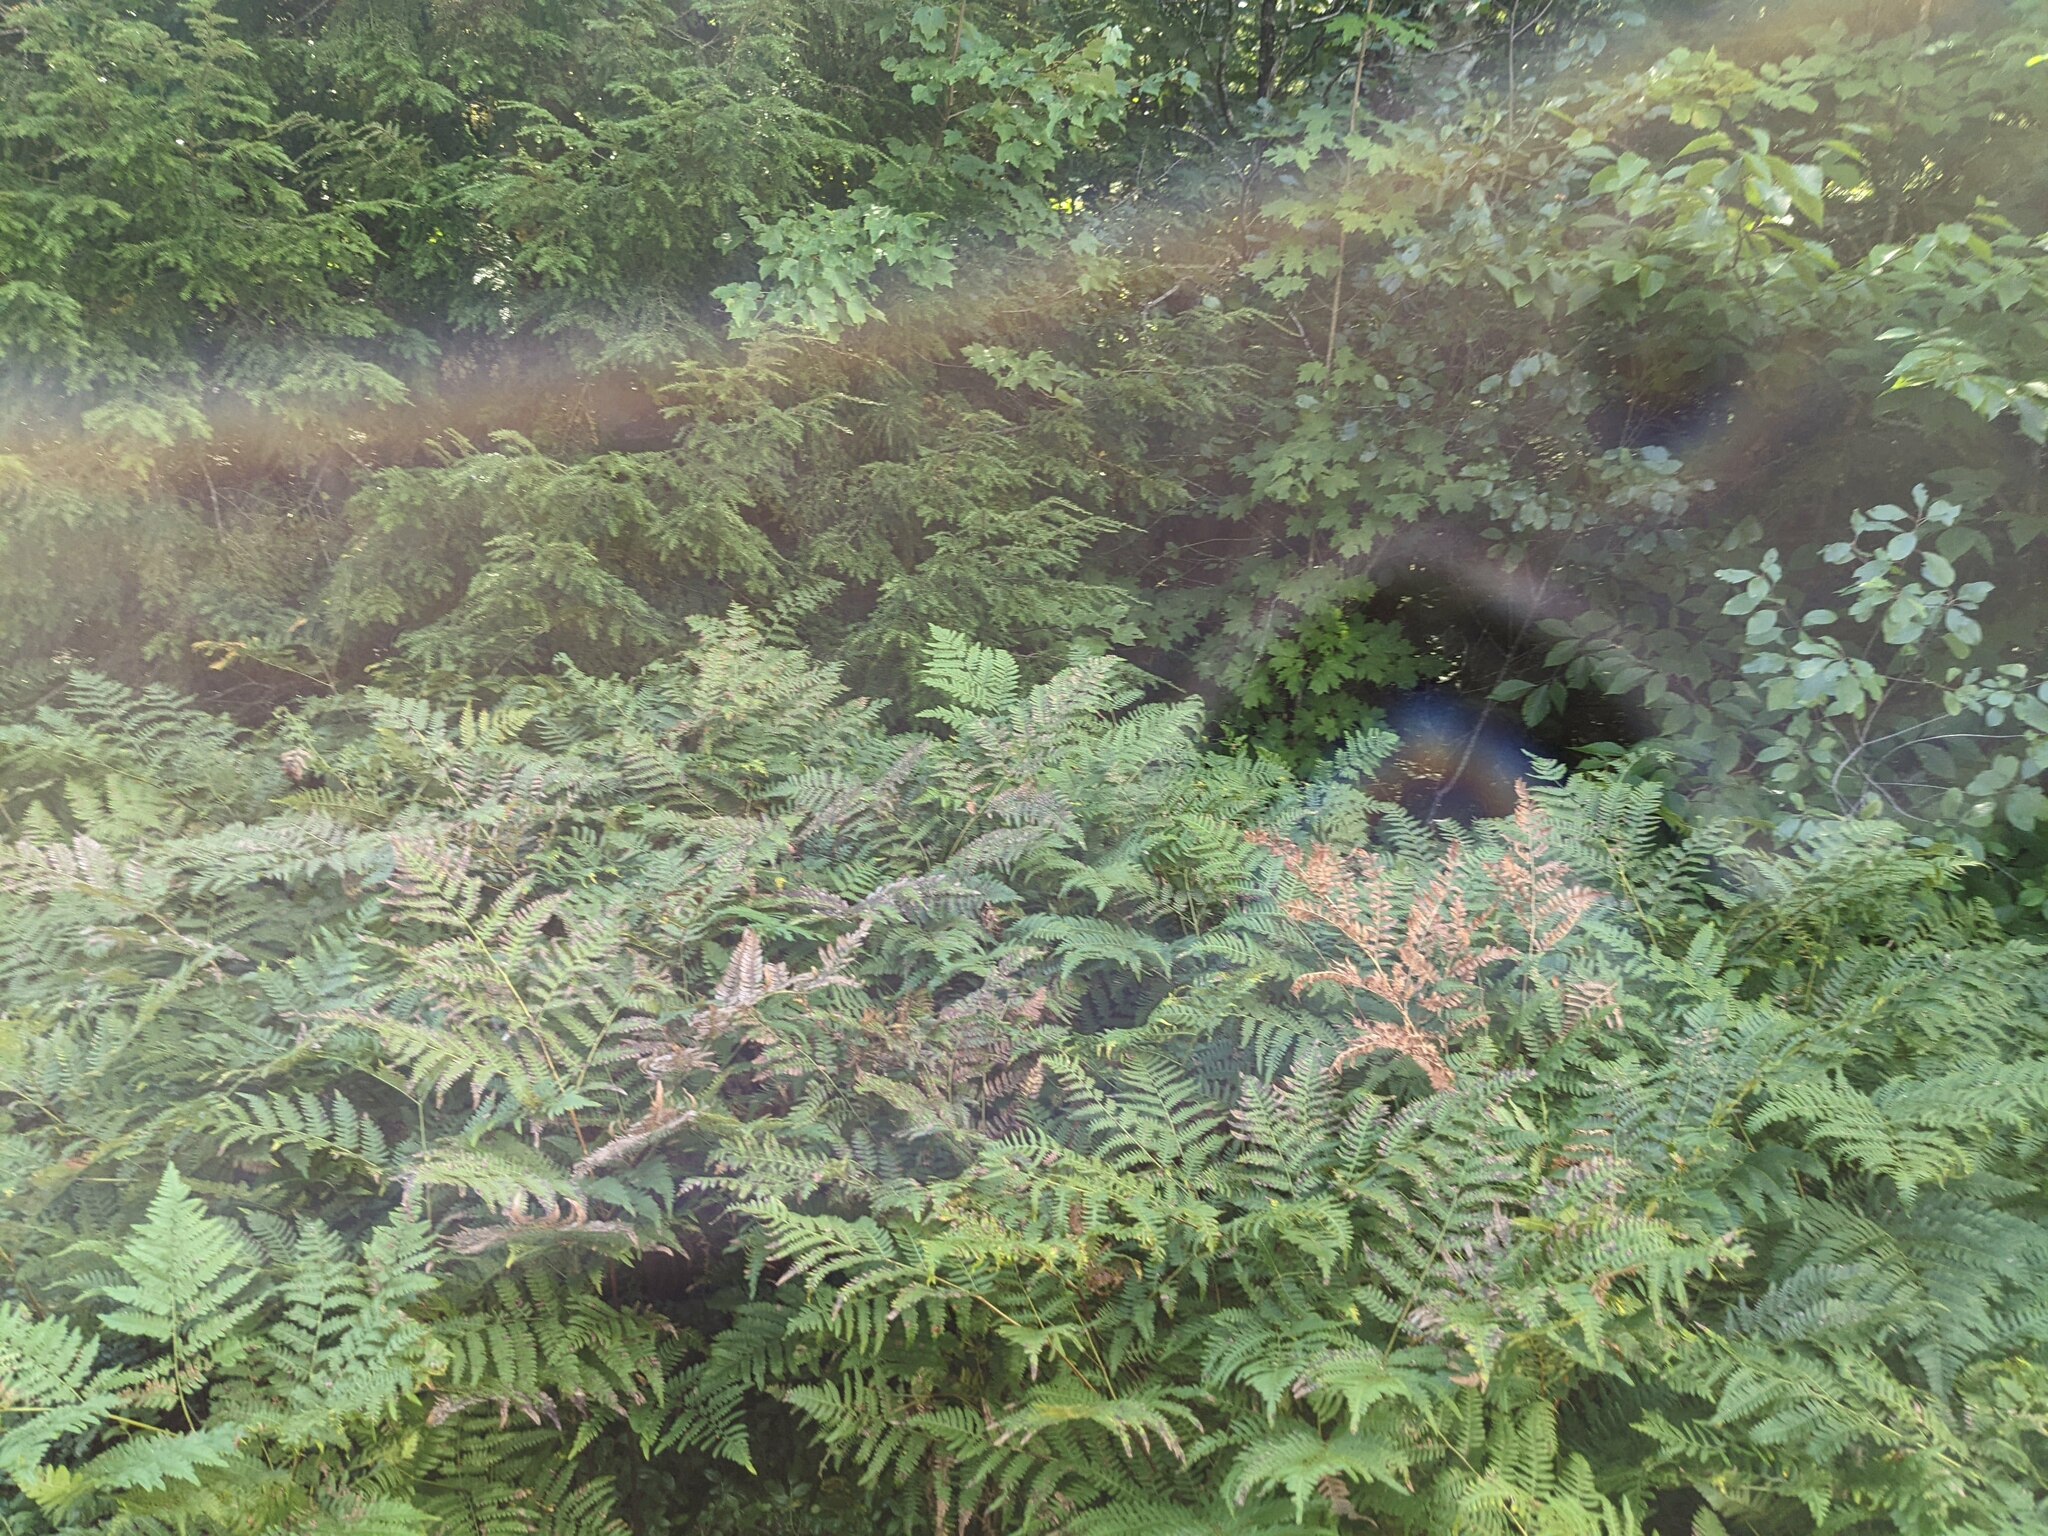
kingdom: Plantae
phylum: Tracheophyta
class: Polypodiopsida
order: Polypodiales
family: Dennstaedtiaceae
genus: Pteridium
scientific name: Pteridium aquilinum
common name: Bracken
